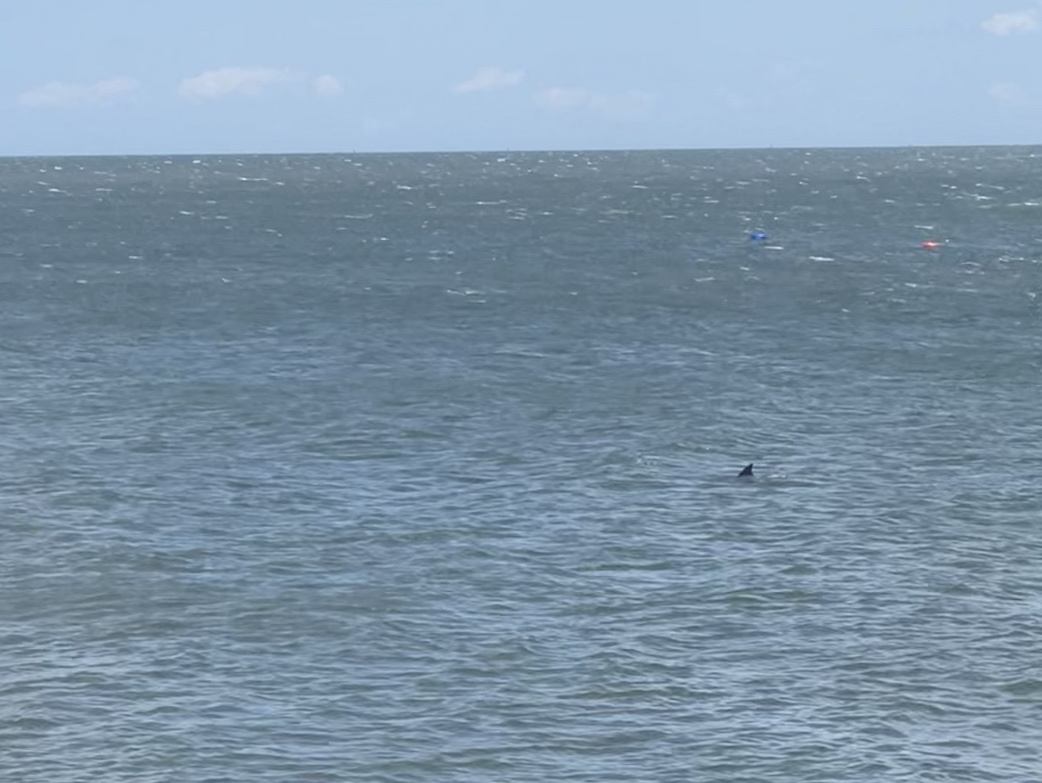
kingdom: Animalia
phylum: Chordata
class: Mammalia
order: Cetacea
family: Delphinidae
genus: Tursiops
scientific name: Tursiops truncatus
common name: Bottlenose dolphin
